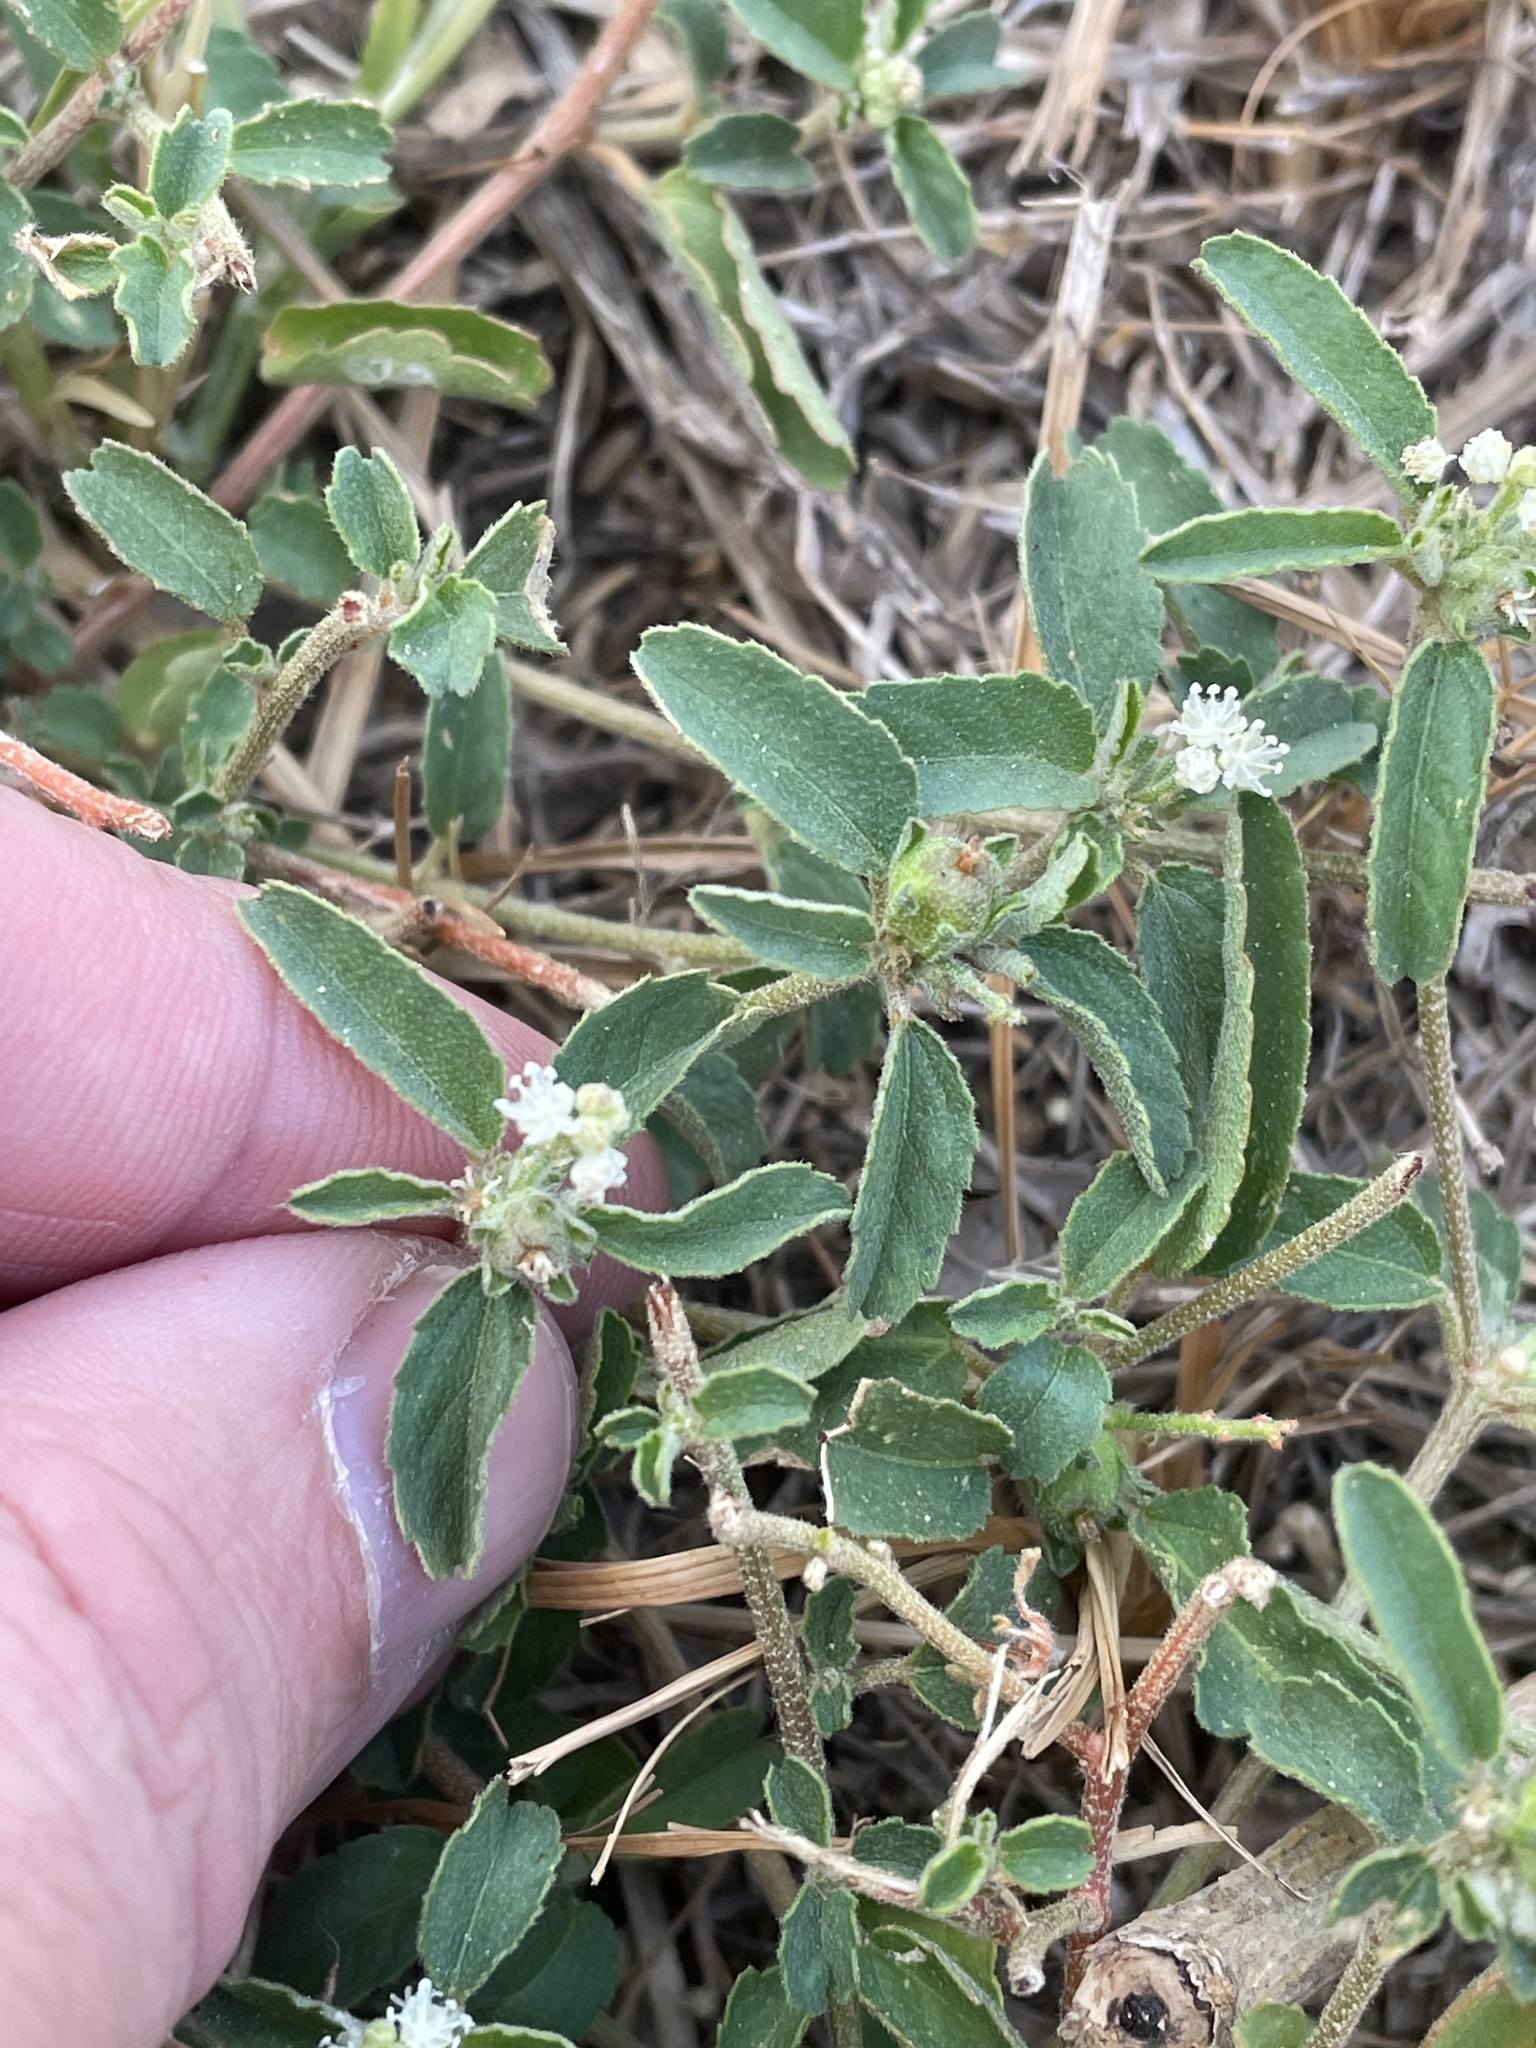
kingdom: Plantae
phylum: Tracheophyta
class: Magnoliopsida
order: Malpighiales
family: Euphorbiaceae
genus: Croton
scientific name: Croton glandulosus
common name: Tropic croton
